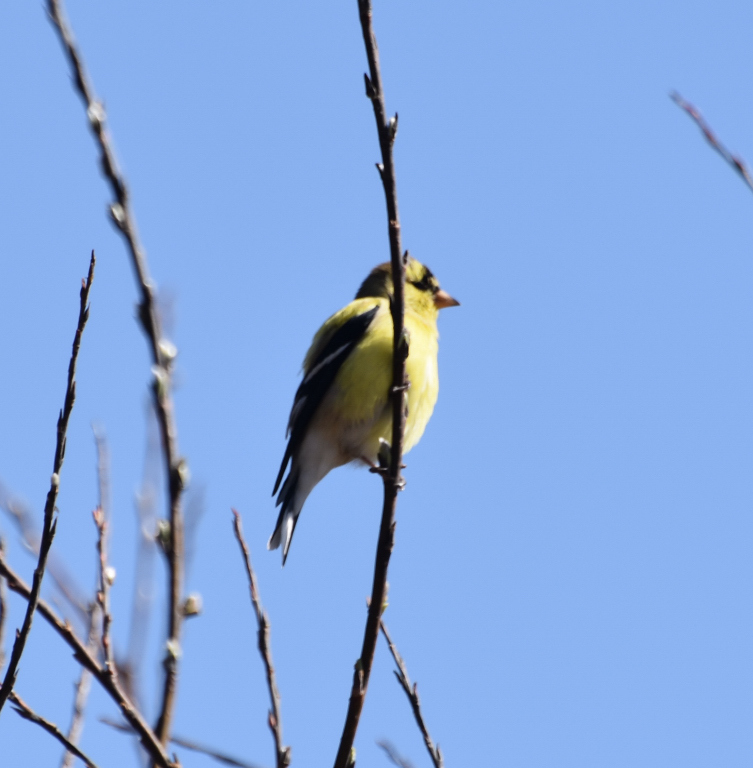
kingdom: Animalia
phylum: Chordata
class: Aves
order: Passeriformes
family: Fringillidae
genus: Spinus
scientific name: Spinus tristis
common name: American goldfinch
